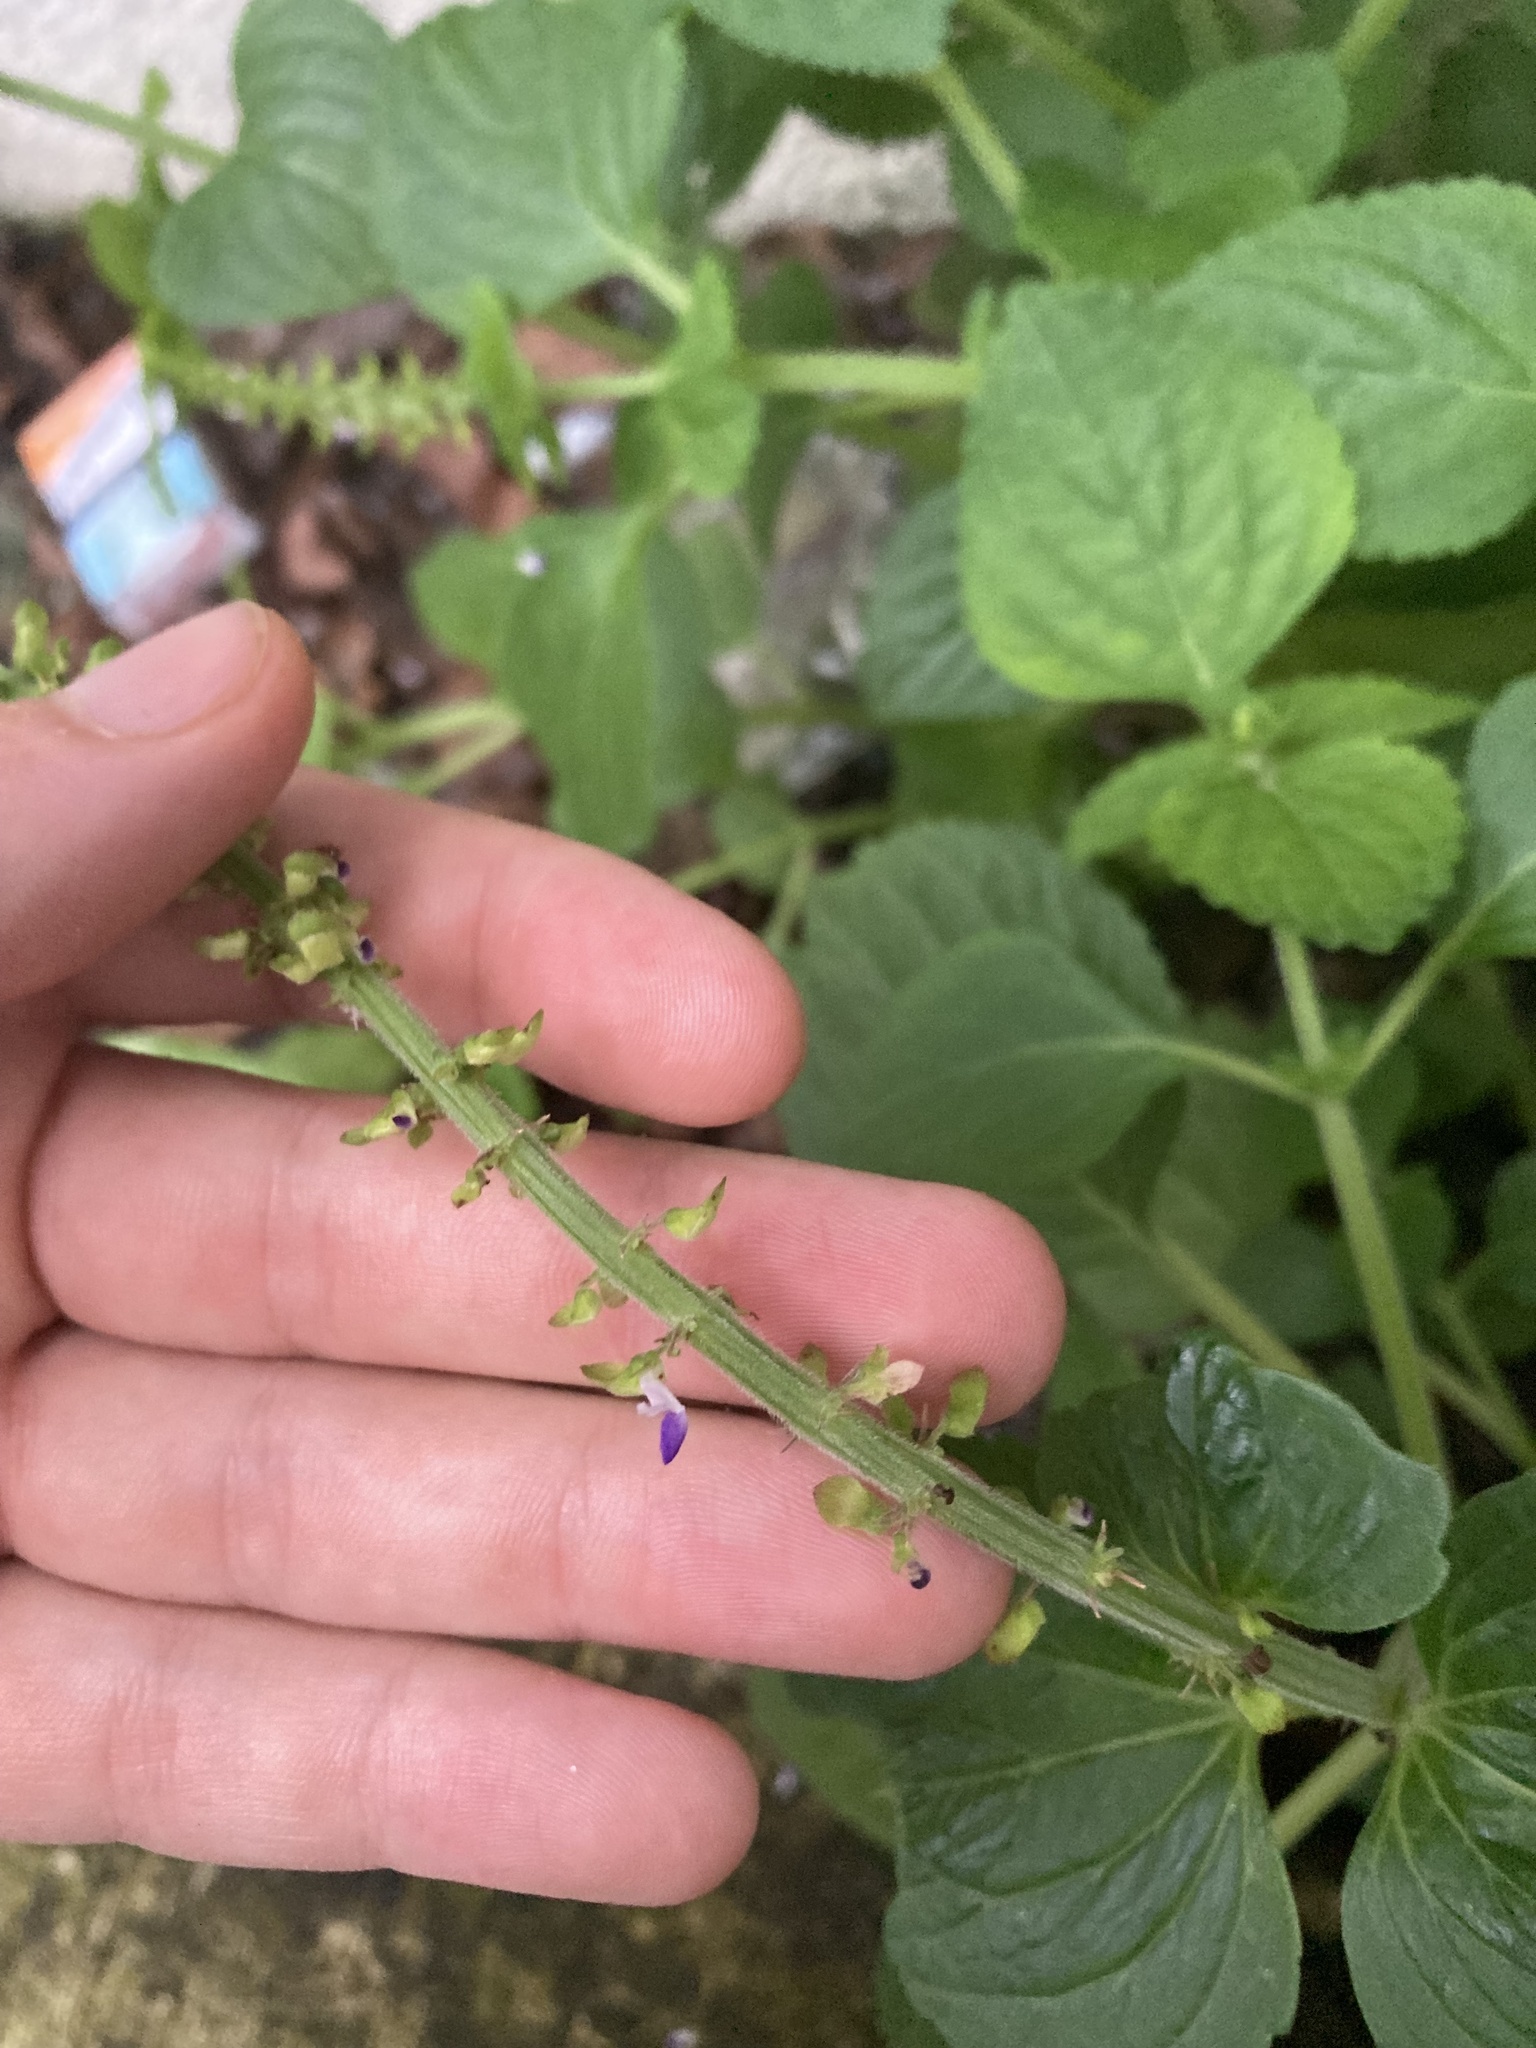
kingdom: Plantae
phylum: Tracheophyta
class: Magnoliopsida
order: Lamiales
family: Lamiaceae
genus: Coleus
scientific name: Coleus monostachyus
